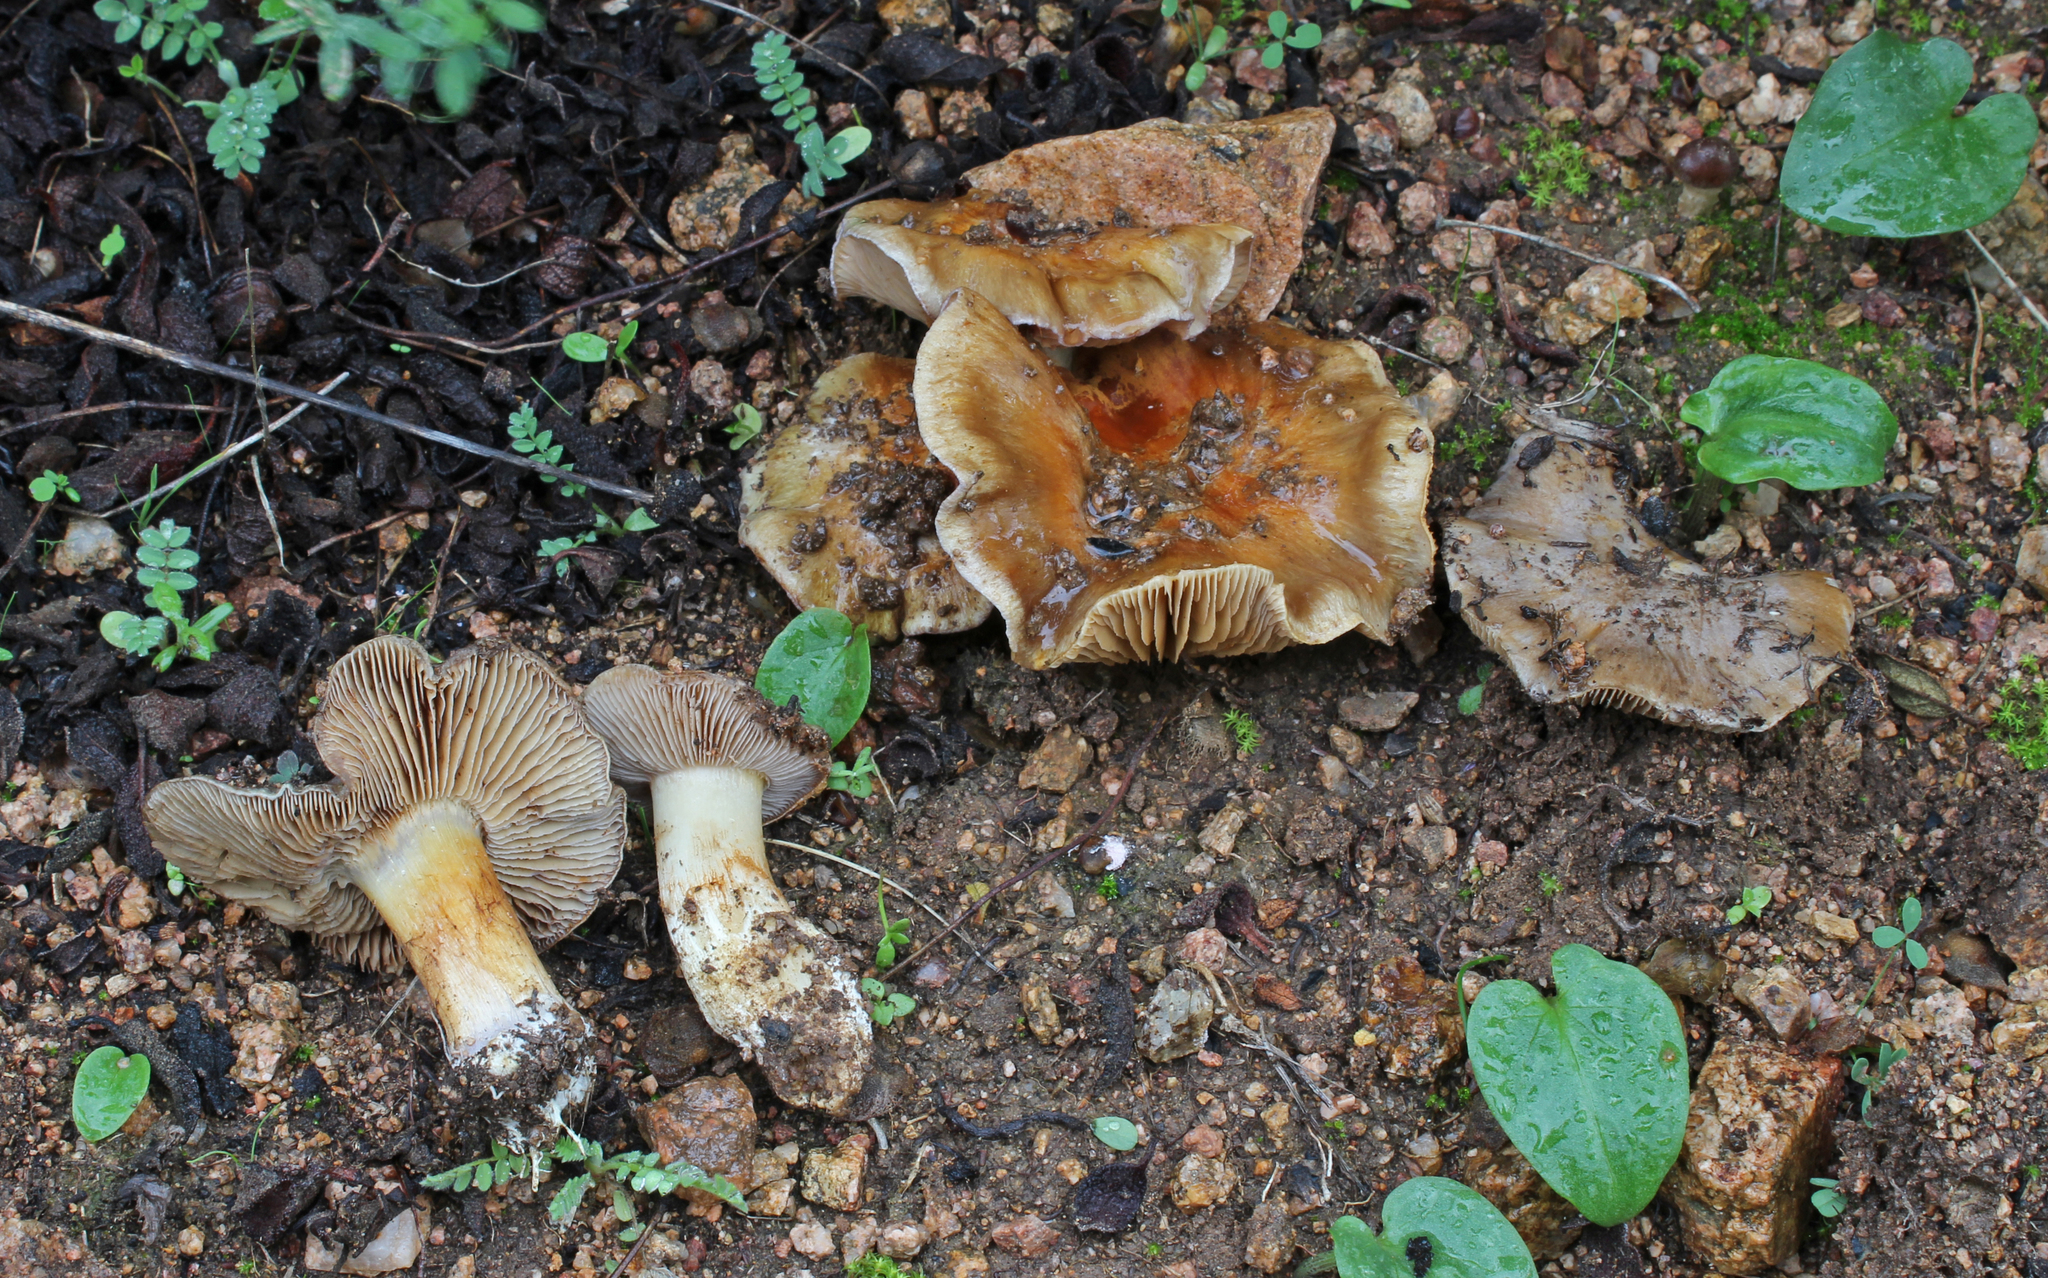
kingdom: Fungi
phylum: Basidiomycota
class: Agaricomycetes
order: Agaricales
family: Cortinariaceae
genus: Phlegmacium
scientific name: Phlegmacium mahiquesii
